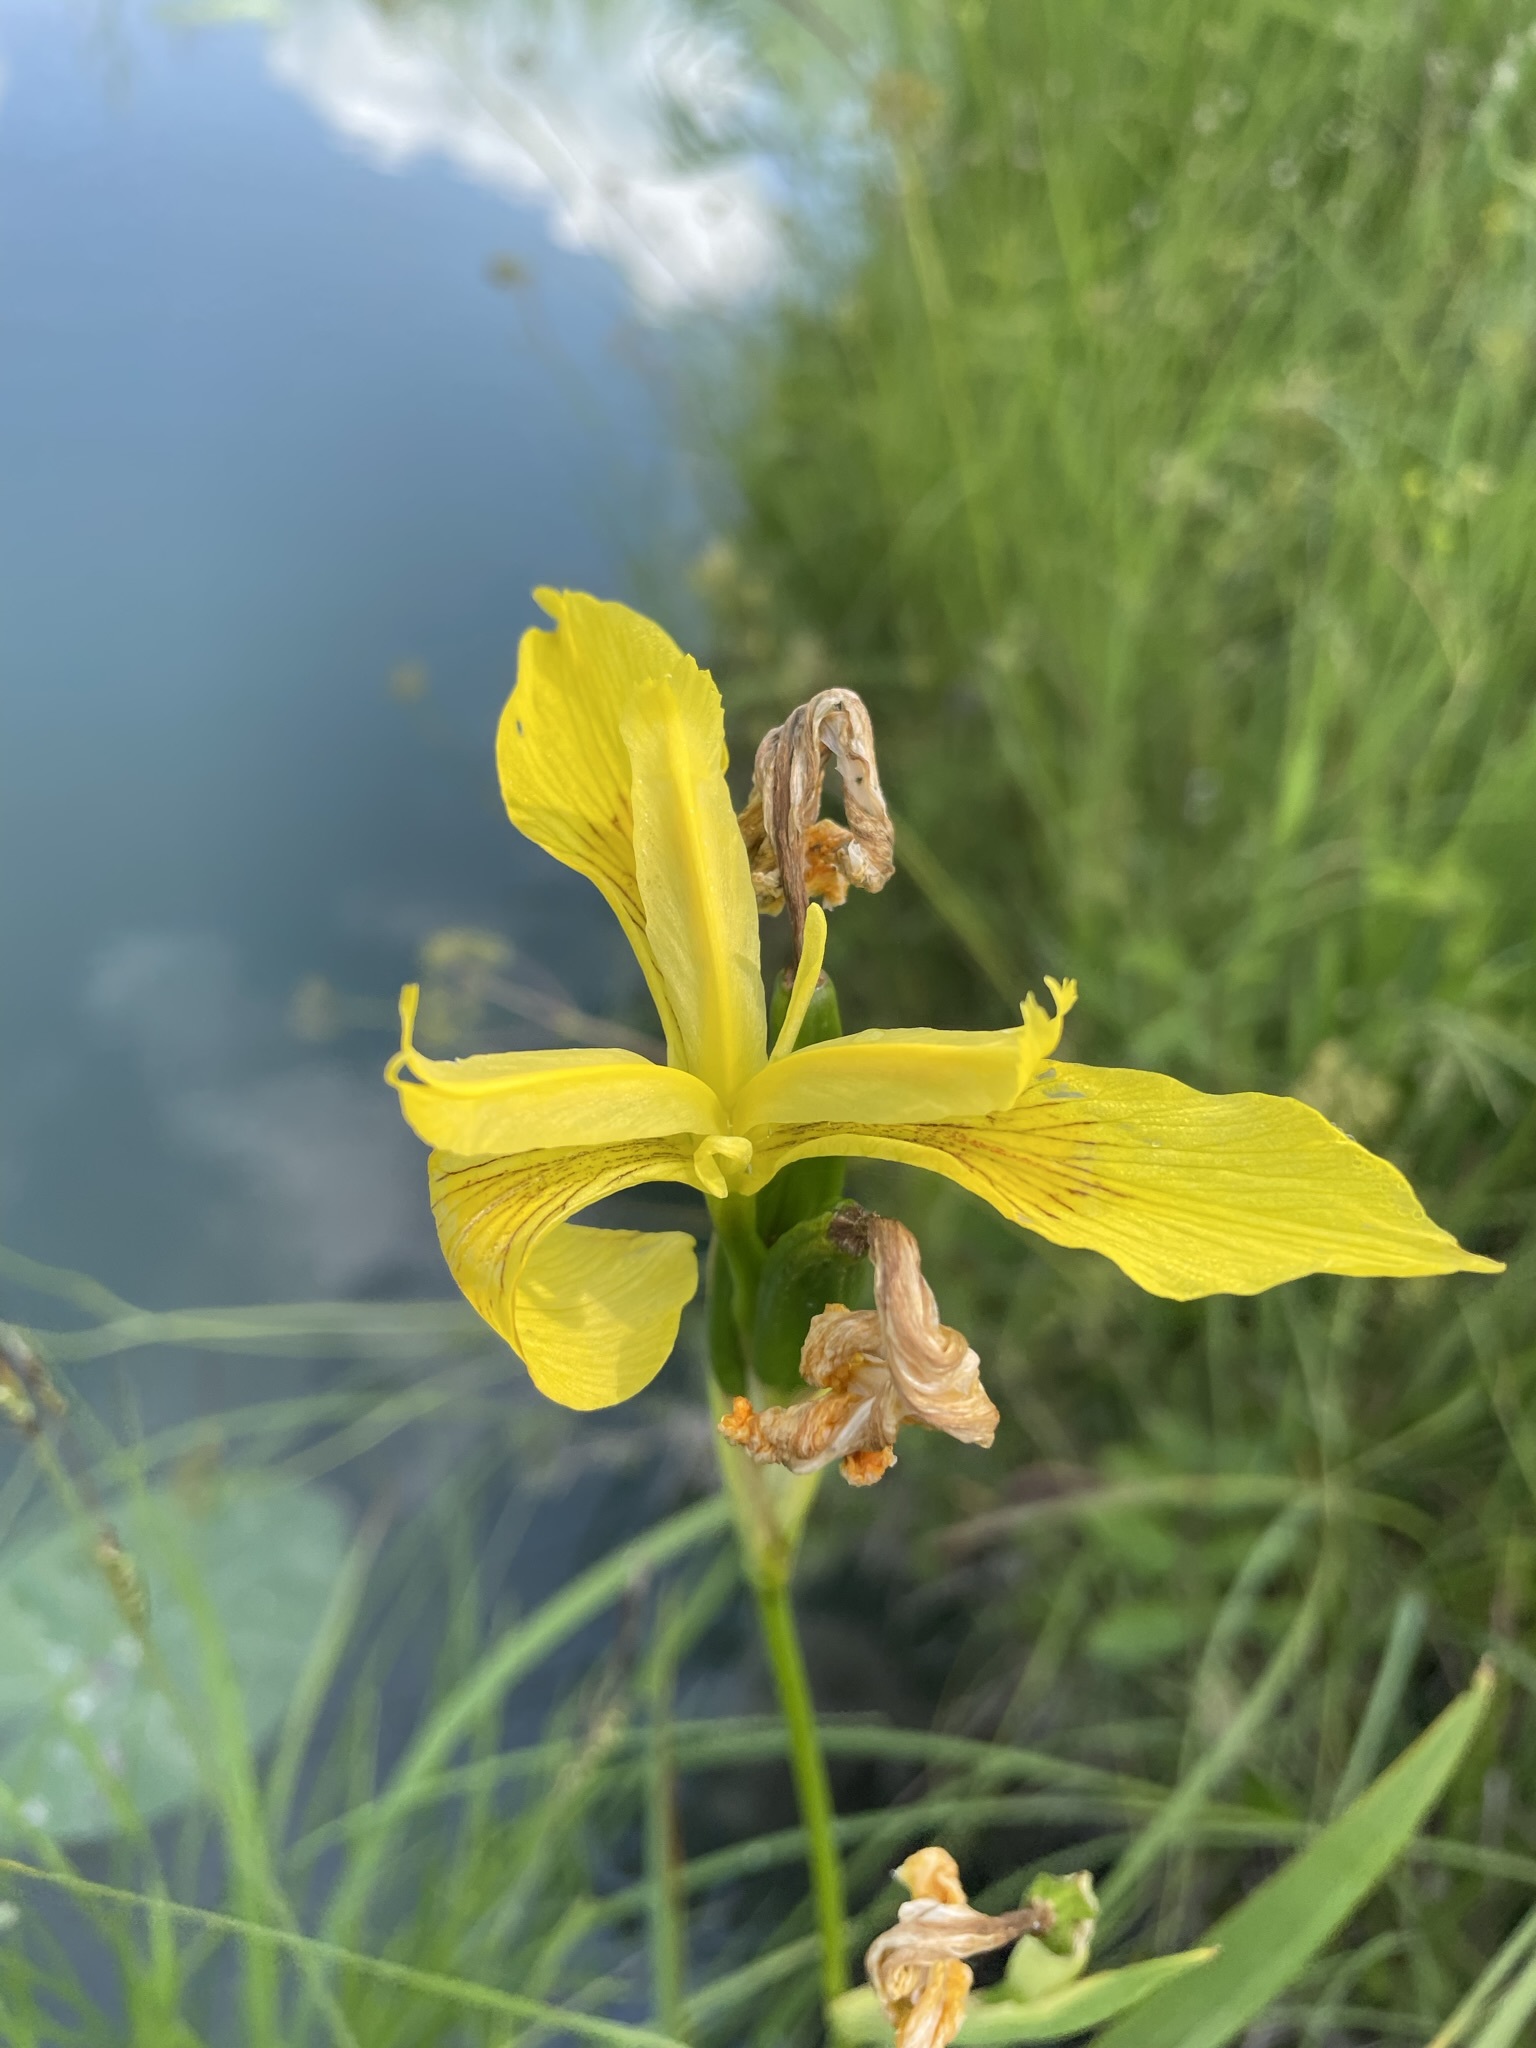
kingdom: Plantae
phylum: Tracheophyta
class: Liliopsida
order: Asparagales
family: Iridaceae
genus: Iris
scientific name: Iris pseudacorus
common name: Yellow flag
